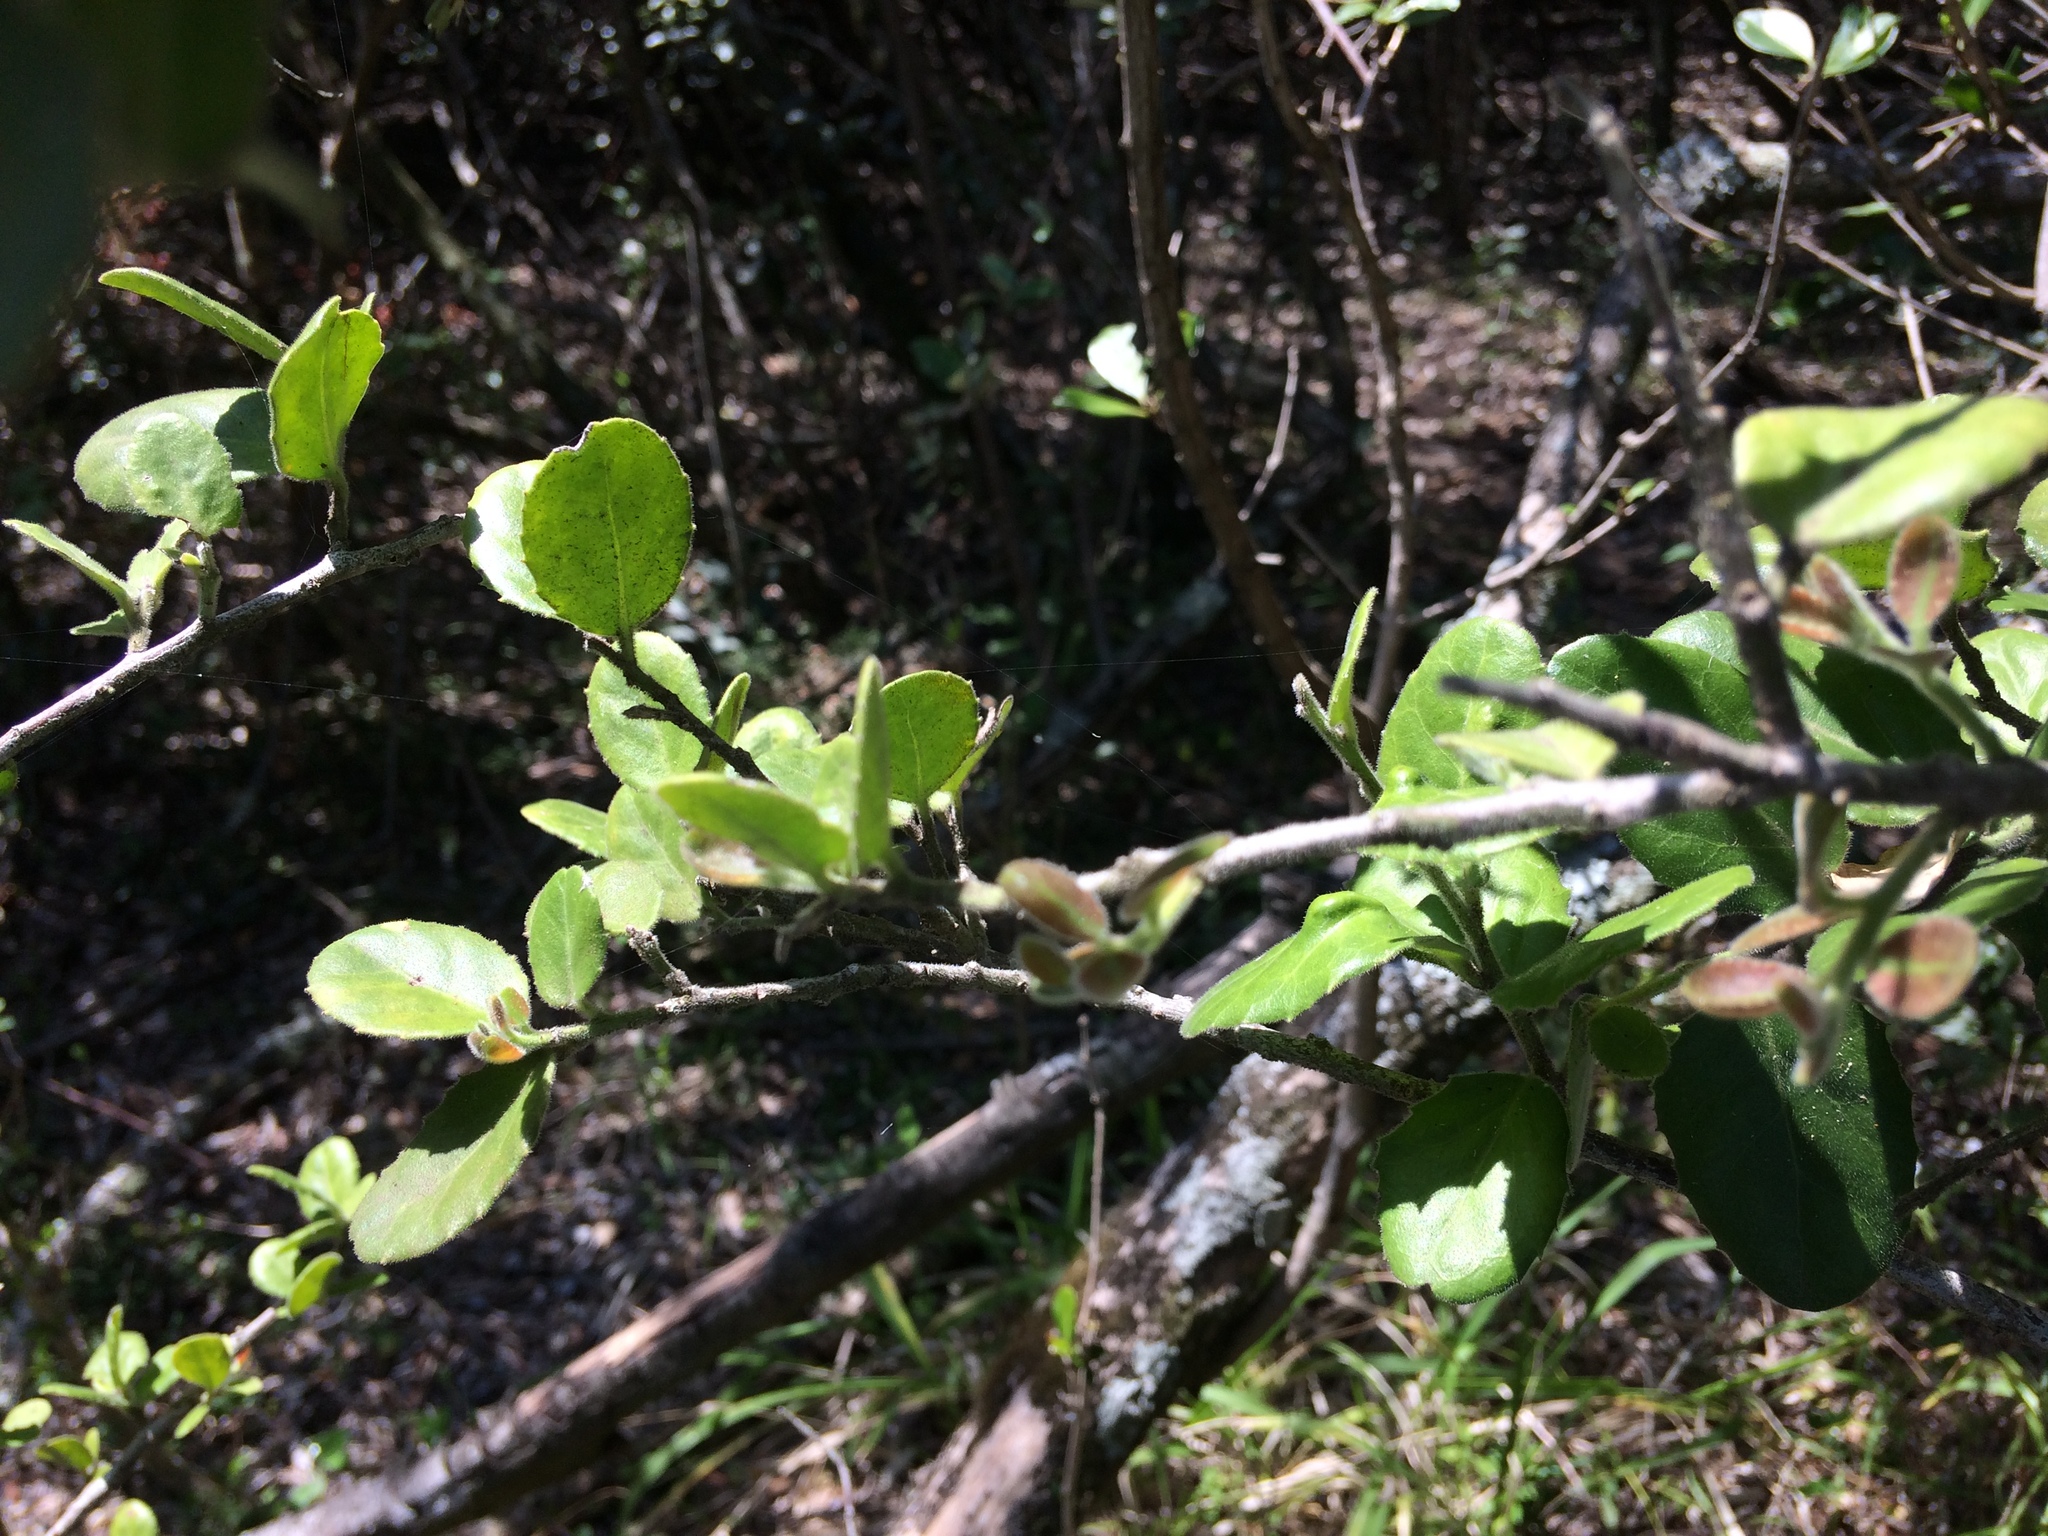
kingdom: Plantae
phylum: Tracheophyta
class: Magnoliopsida
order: Celastrales
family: Celastraceae
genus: Mystroxylon
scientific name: Mystroxylon aethiopicum
